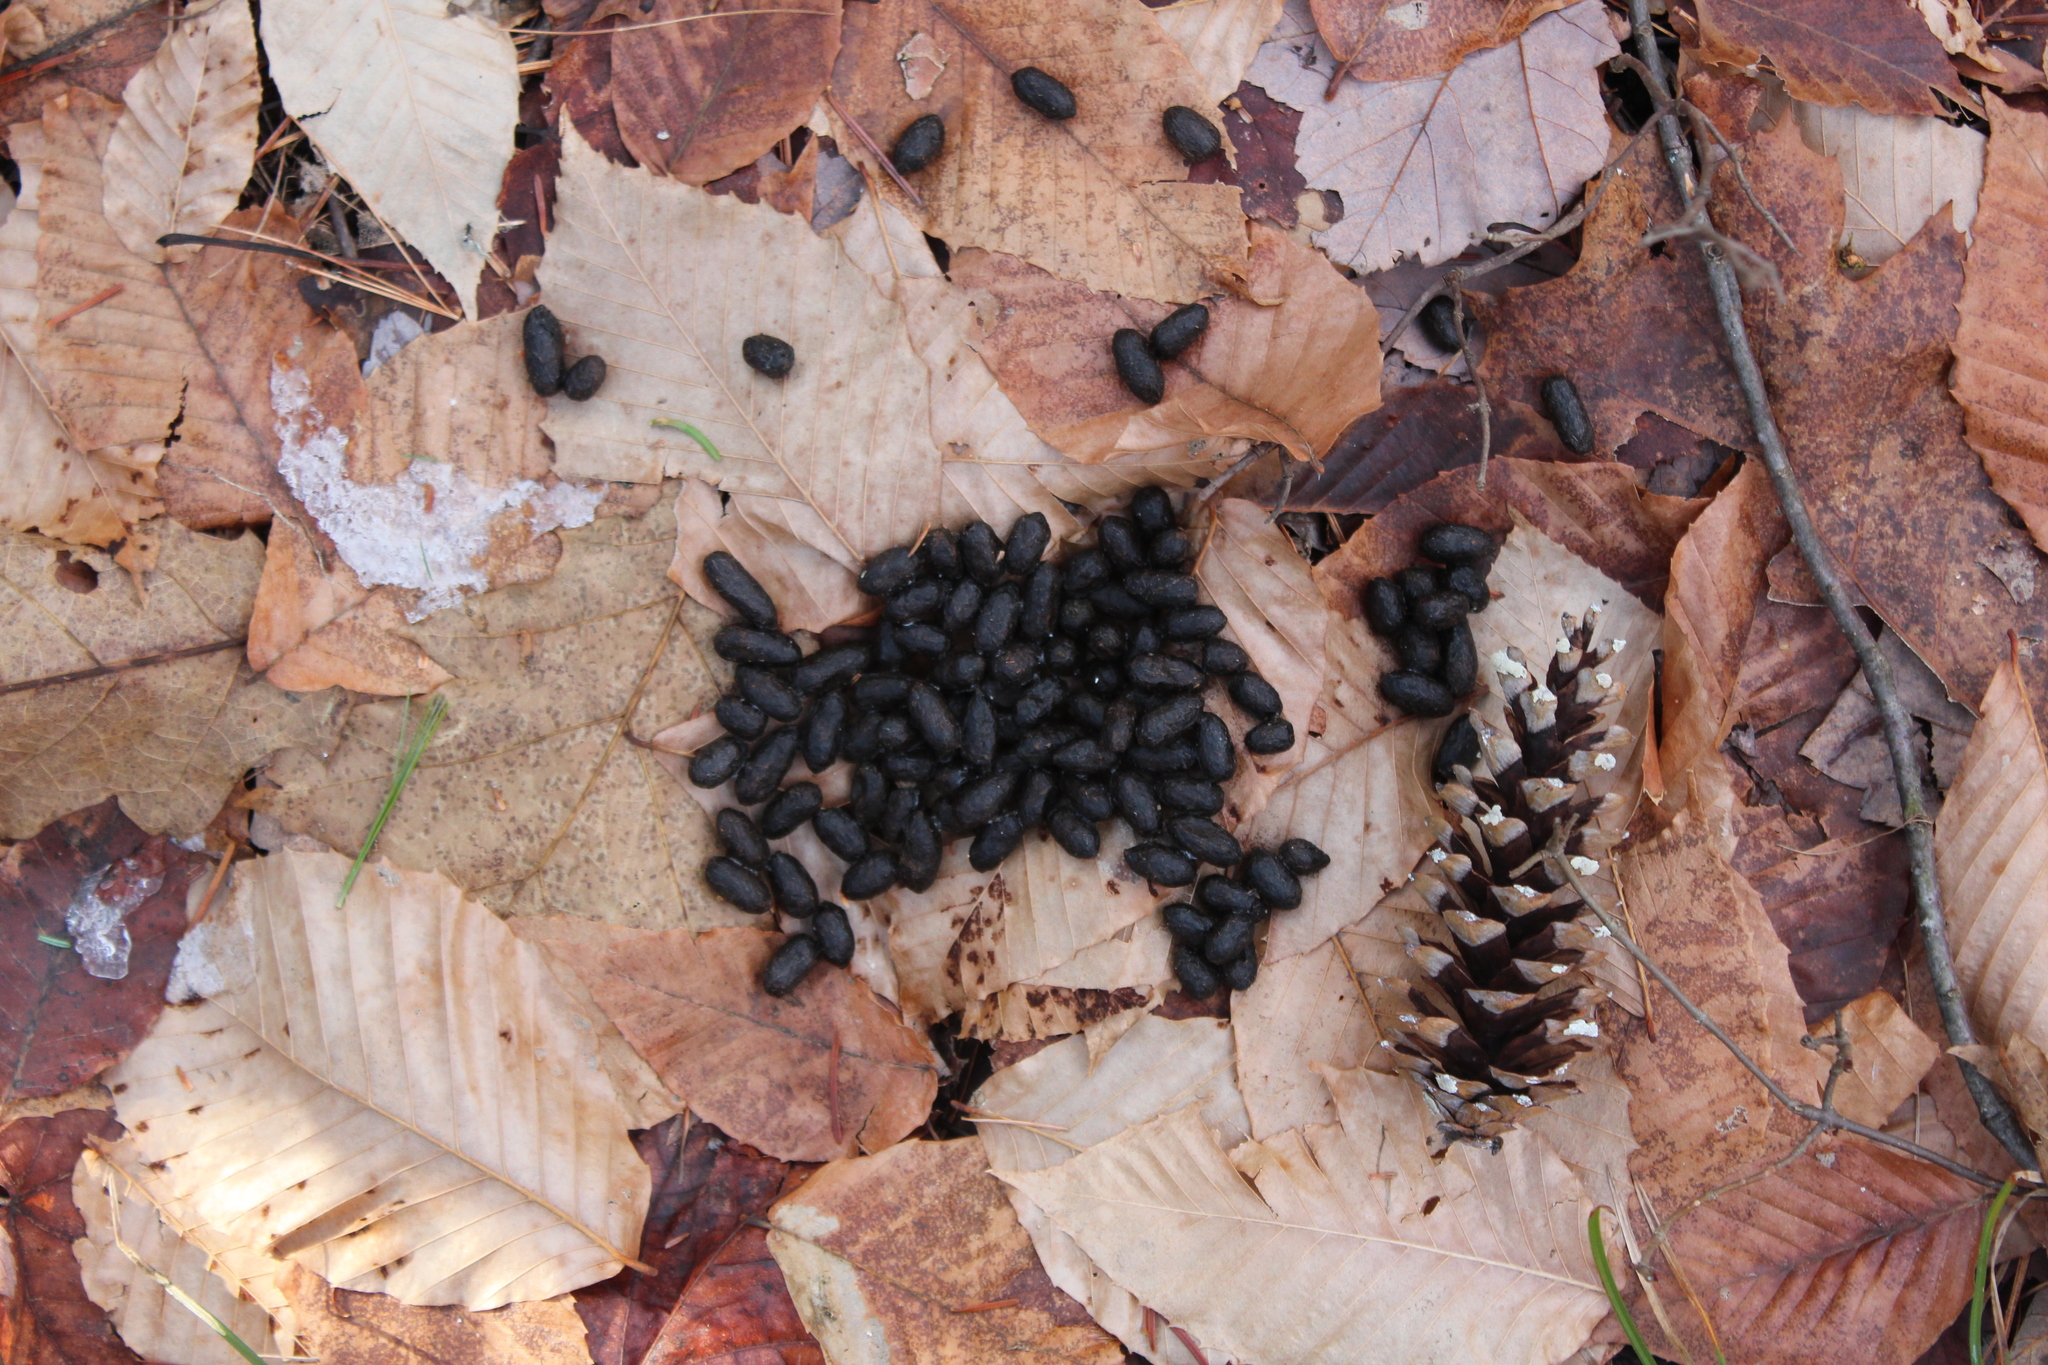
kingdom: Animalia
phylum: Chordata
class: Mammalia
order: Artiodactyla
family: Cervidae
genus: Odocoileus
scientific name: Odocoileus virginianus
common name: White-tailed deer
